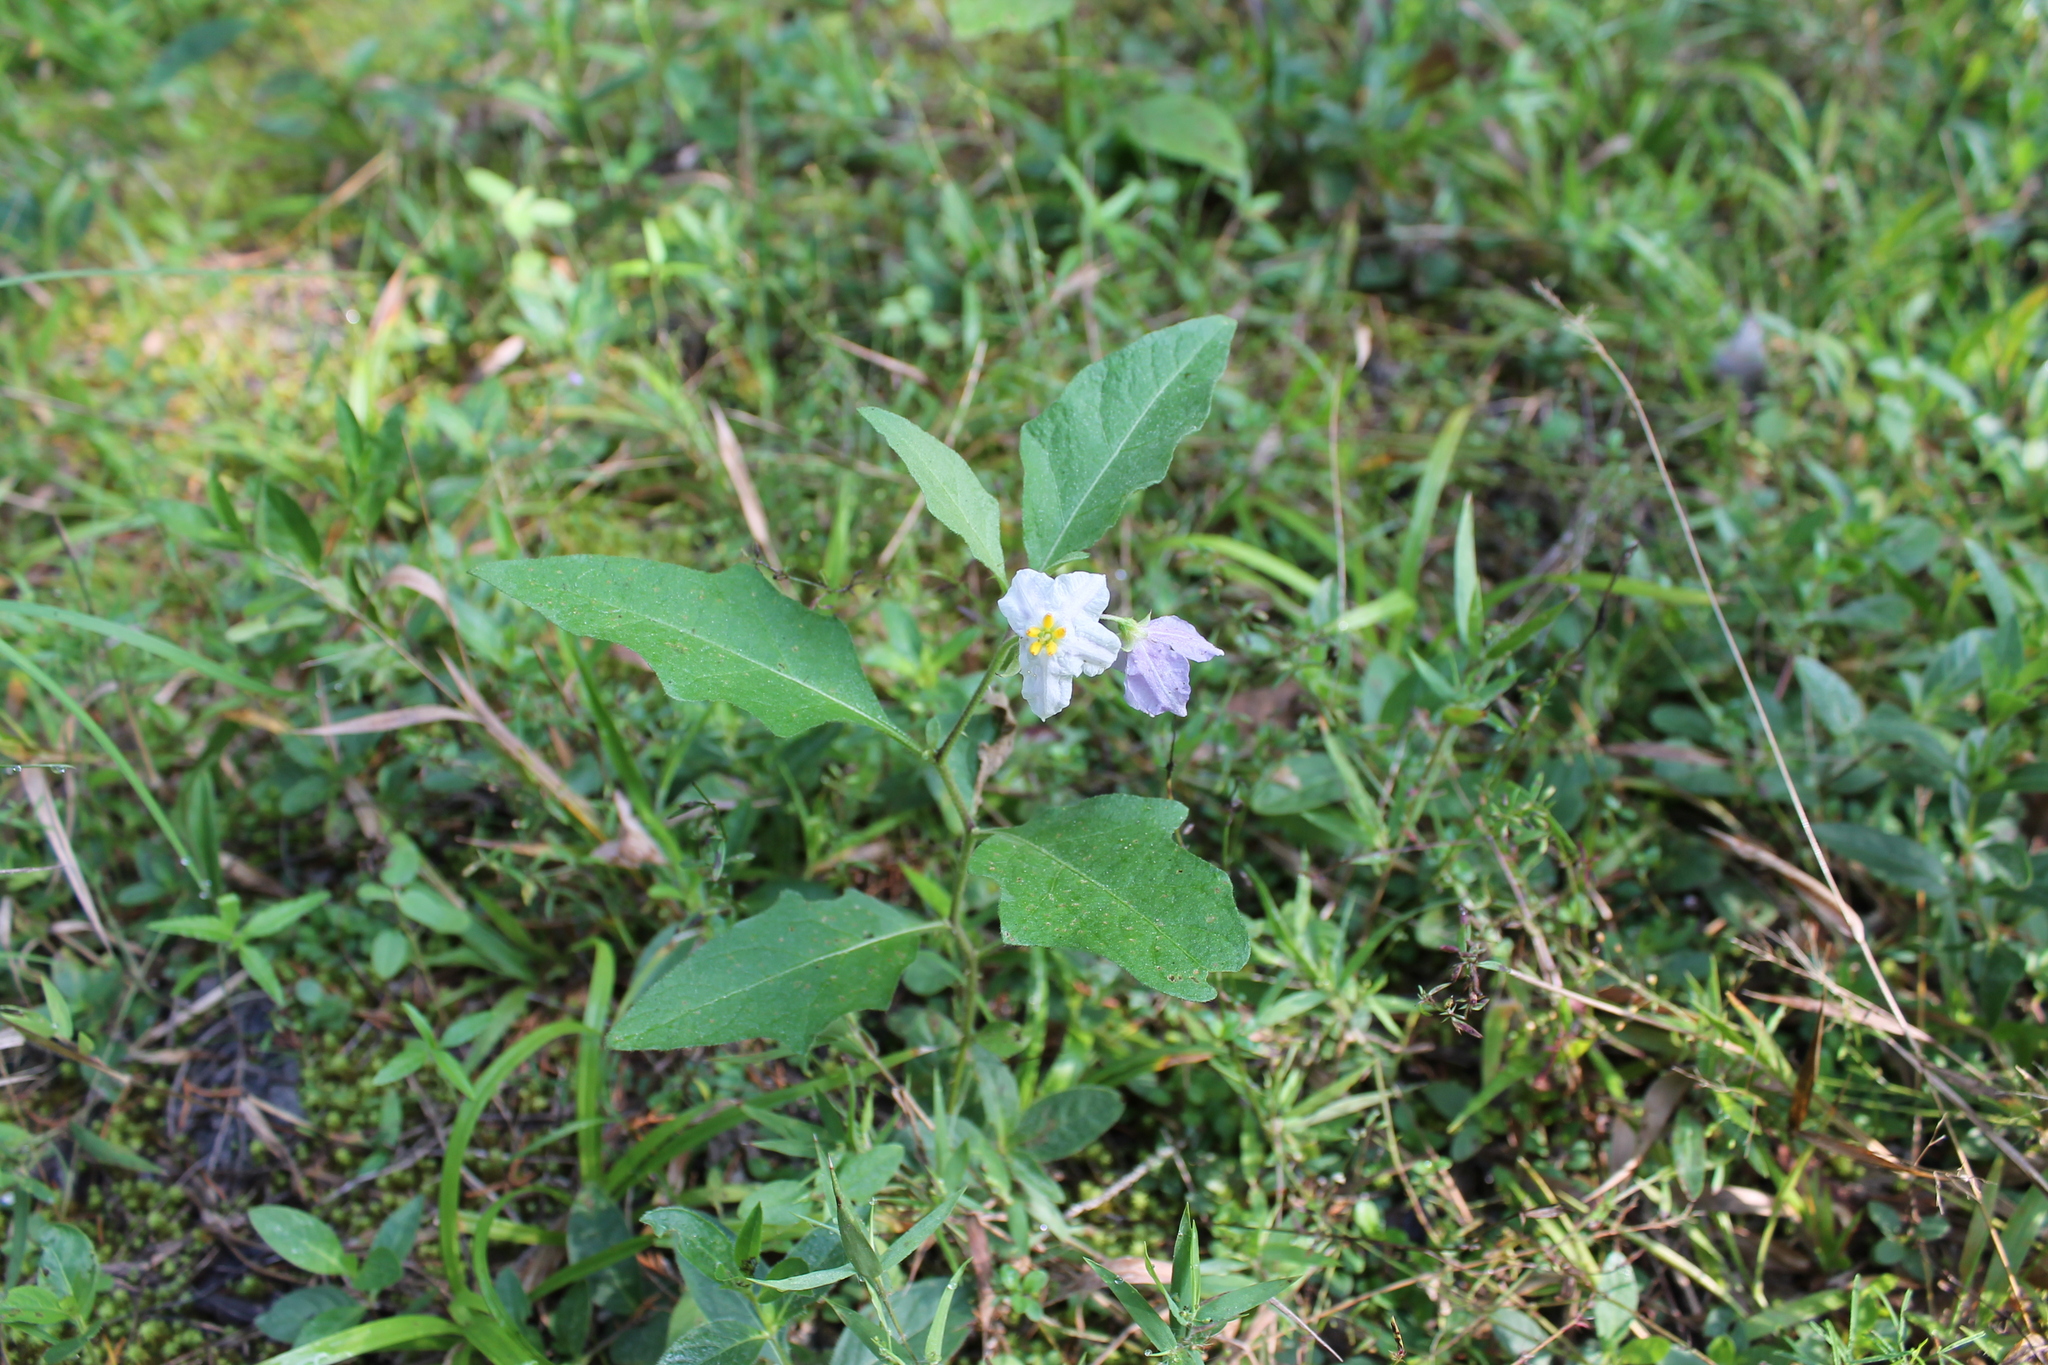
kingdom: Plantae
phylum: Tracheophyta
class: Magnoliopsida
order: Solanales
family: Solanaceae
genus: Solanum
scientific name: Solanum carolinense
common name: Horse-nettle
